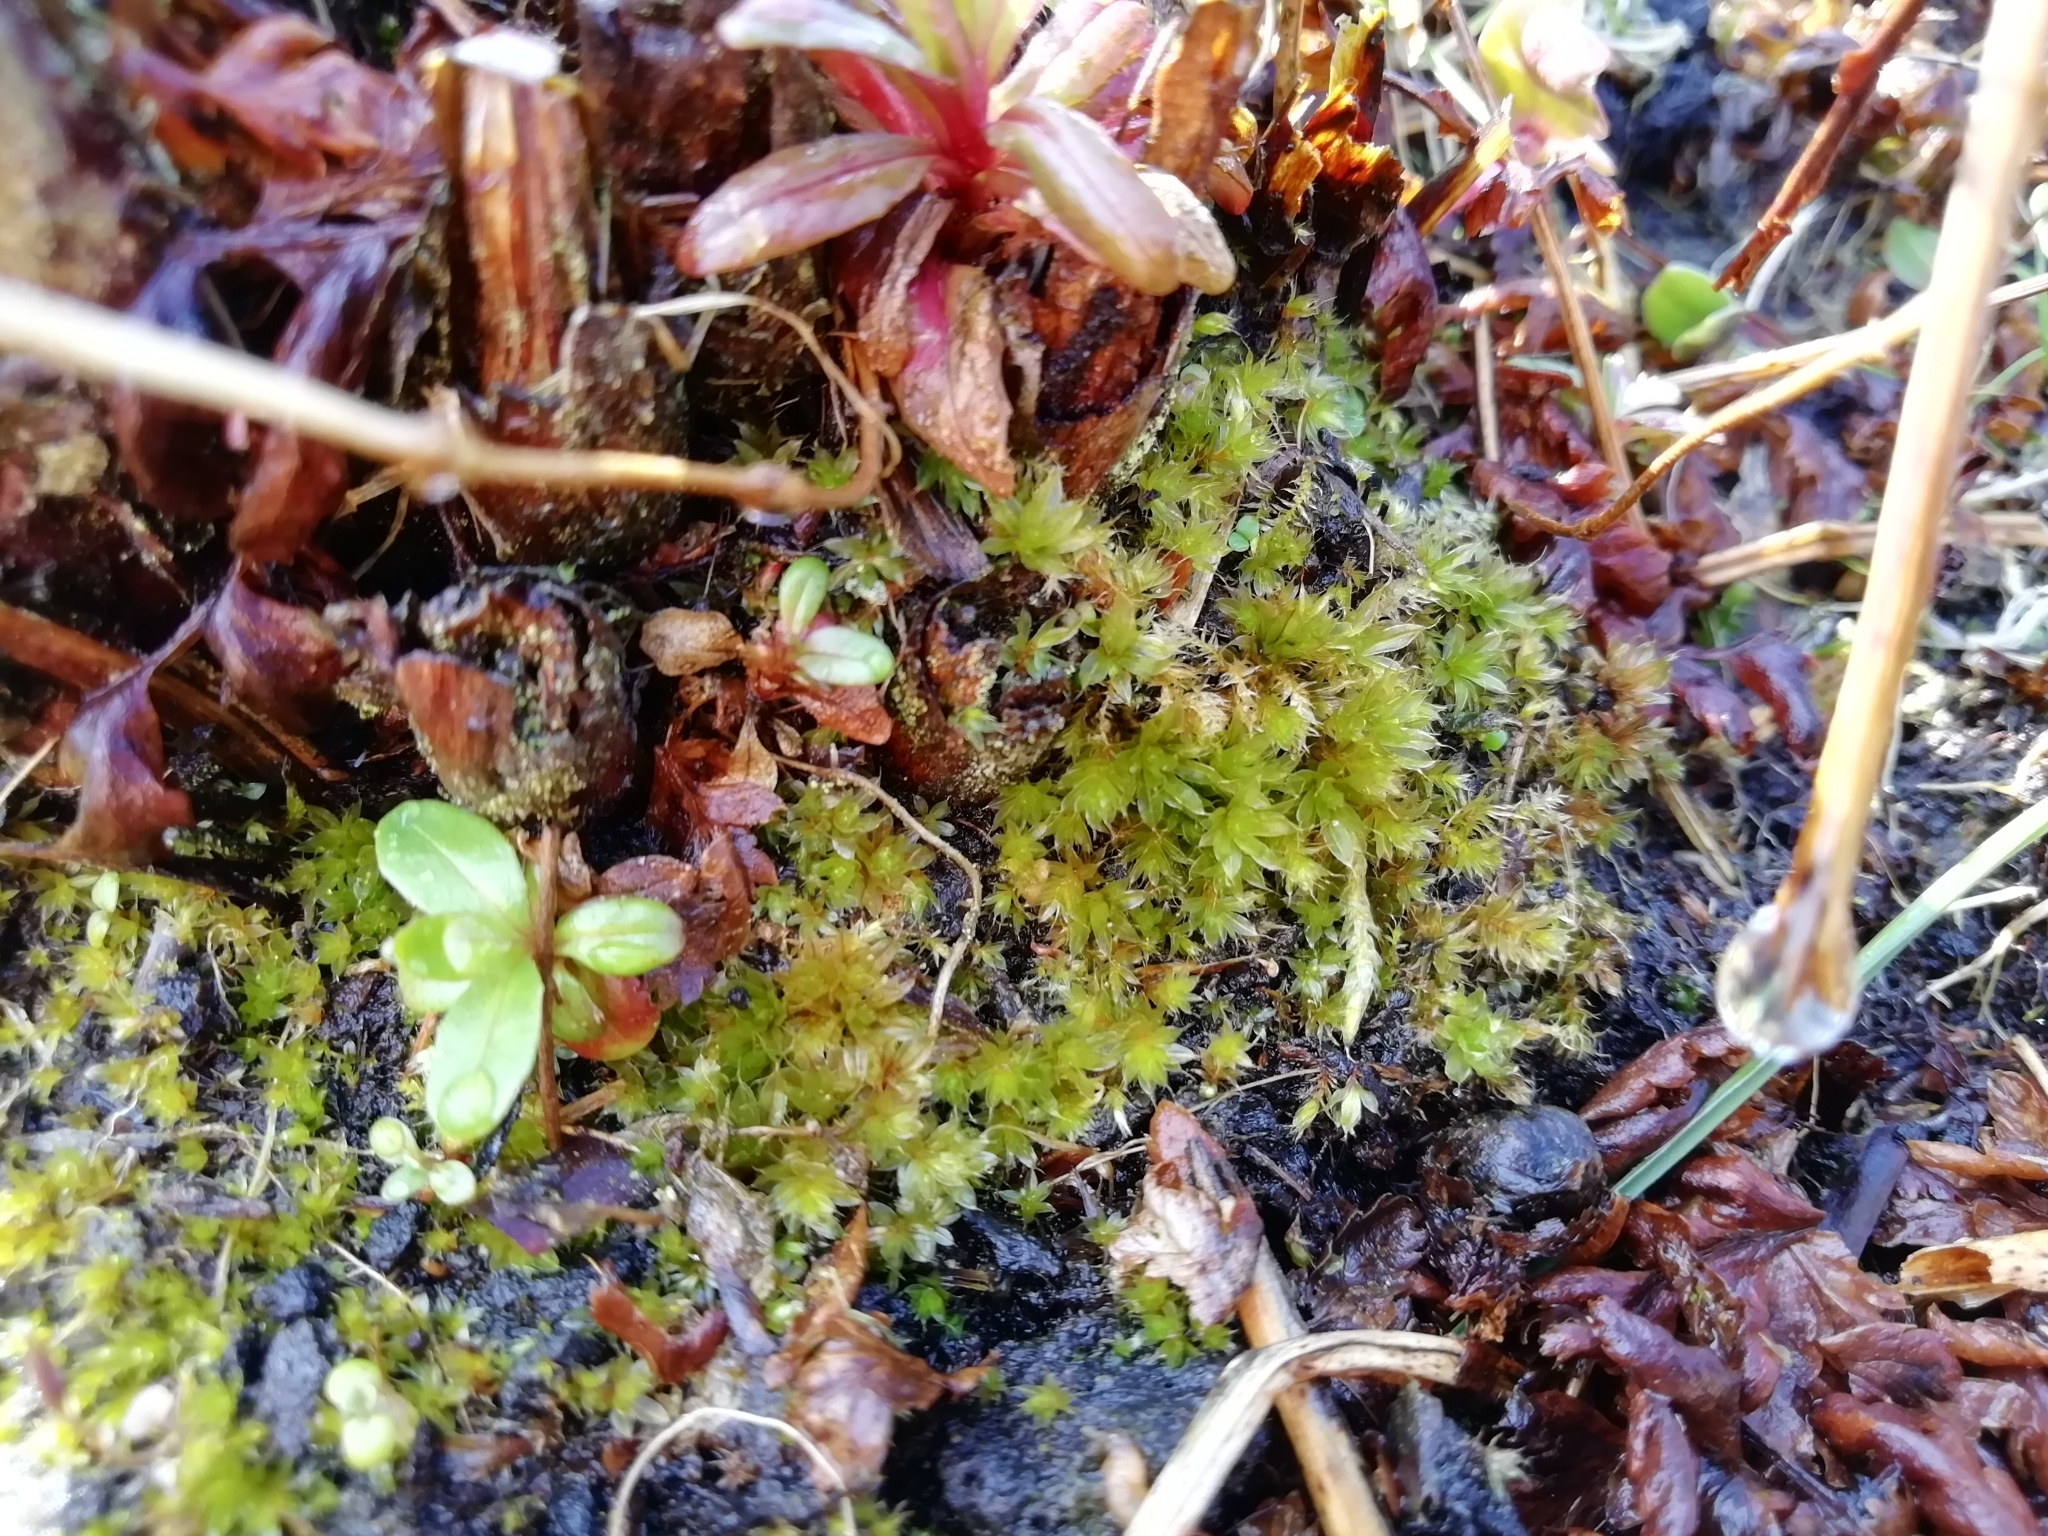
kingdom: Plantae
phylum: Bryophyta
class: Bryopsida
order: Bryales
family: Bryaceae
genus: Rosulabryum
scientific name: Rosulabryum capillare
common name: Capillary thread-moss
